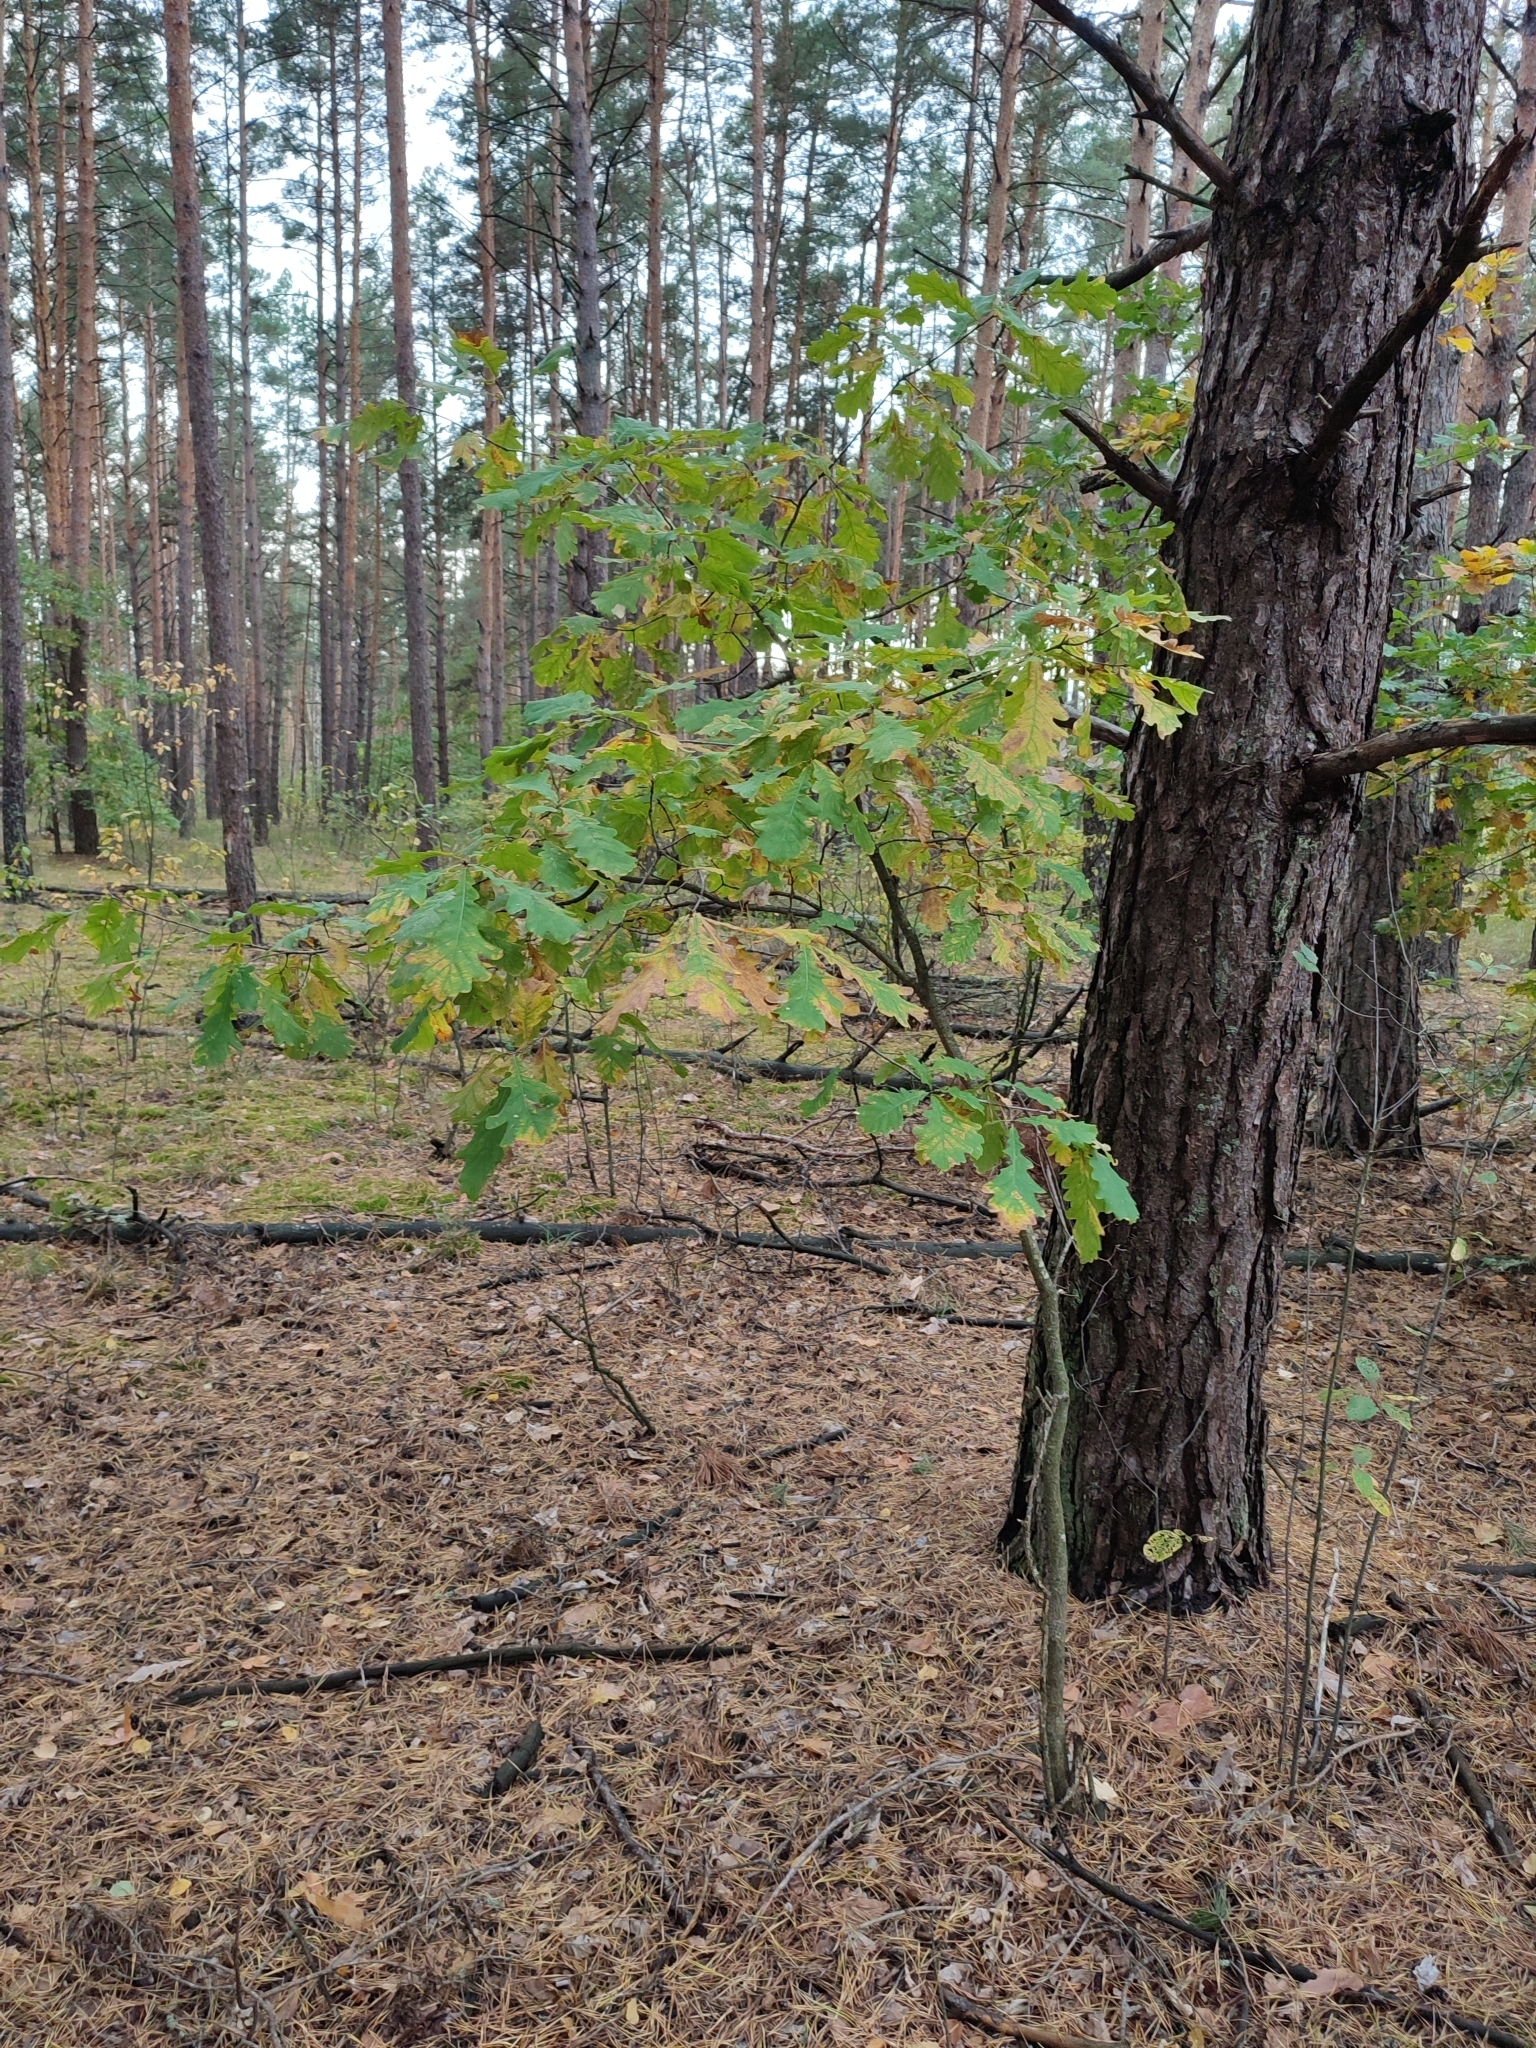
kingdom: Plantae
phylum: Tracheophyta
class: Magnoliopsida
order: Fagales
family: Fagaceae
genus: Quercus
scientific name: Quercus robur
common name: Pedunculate oak
